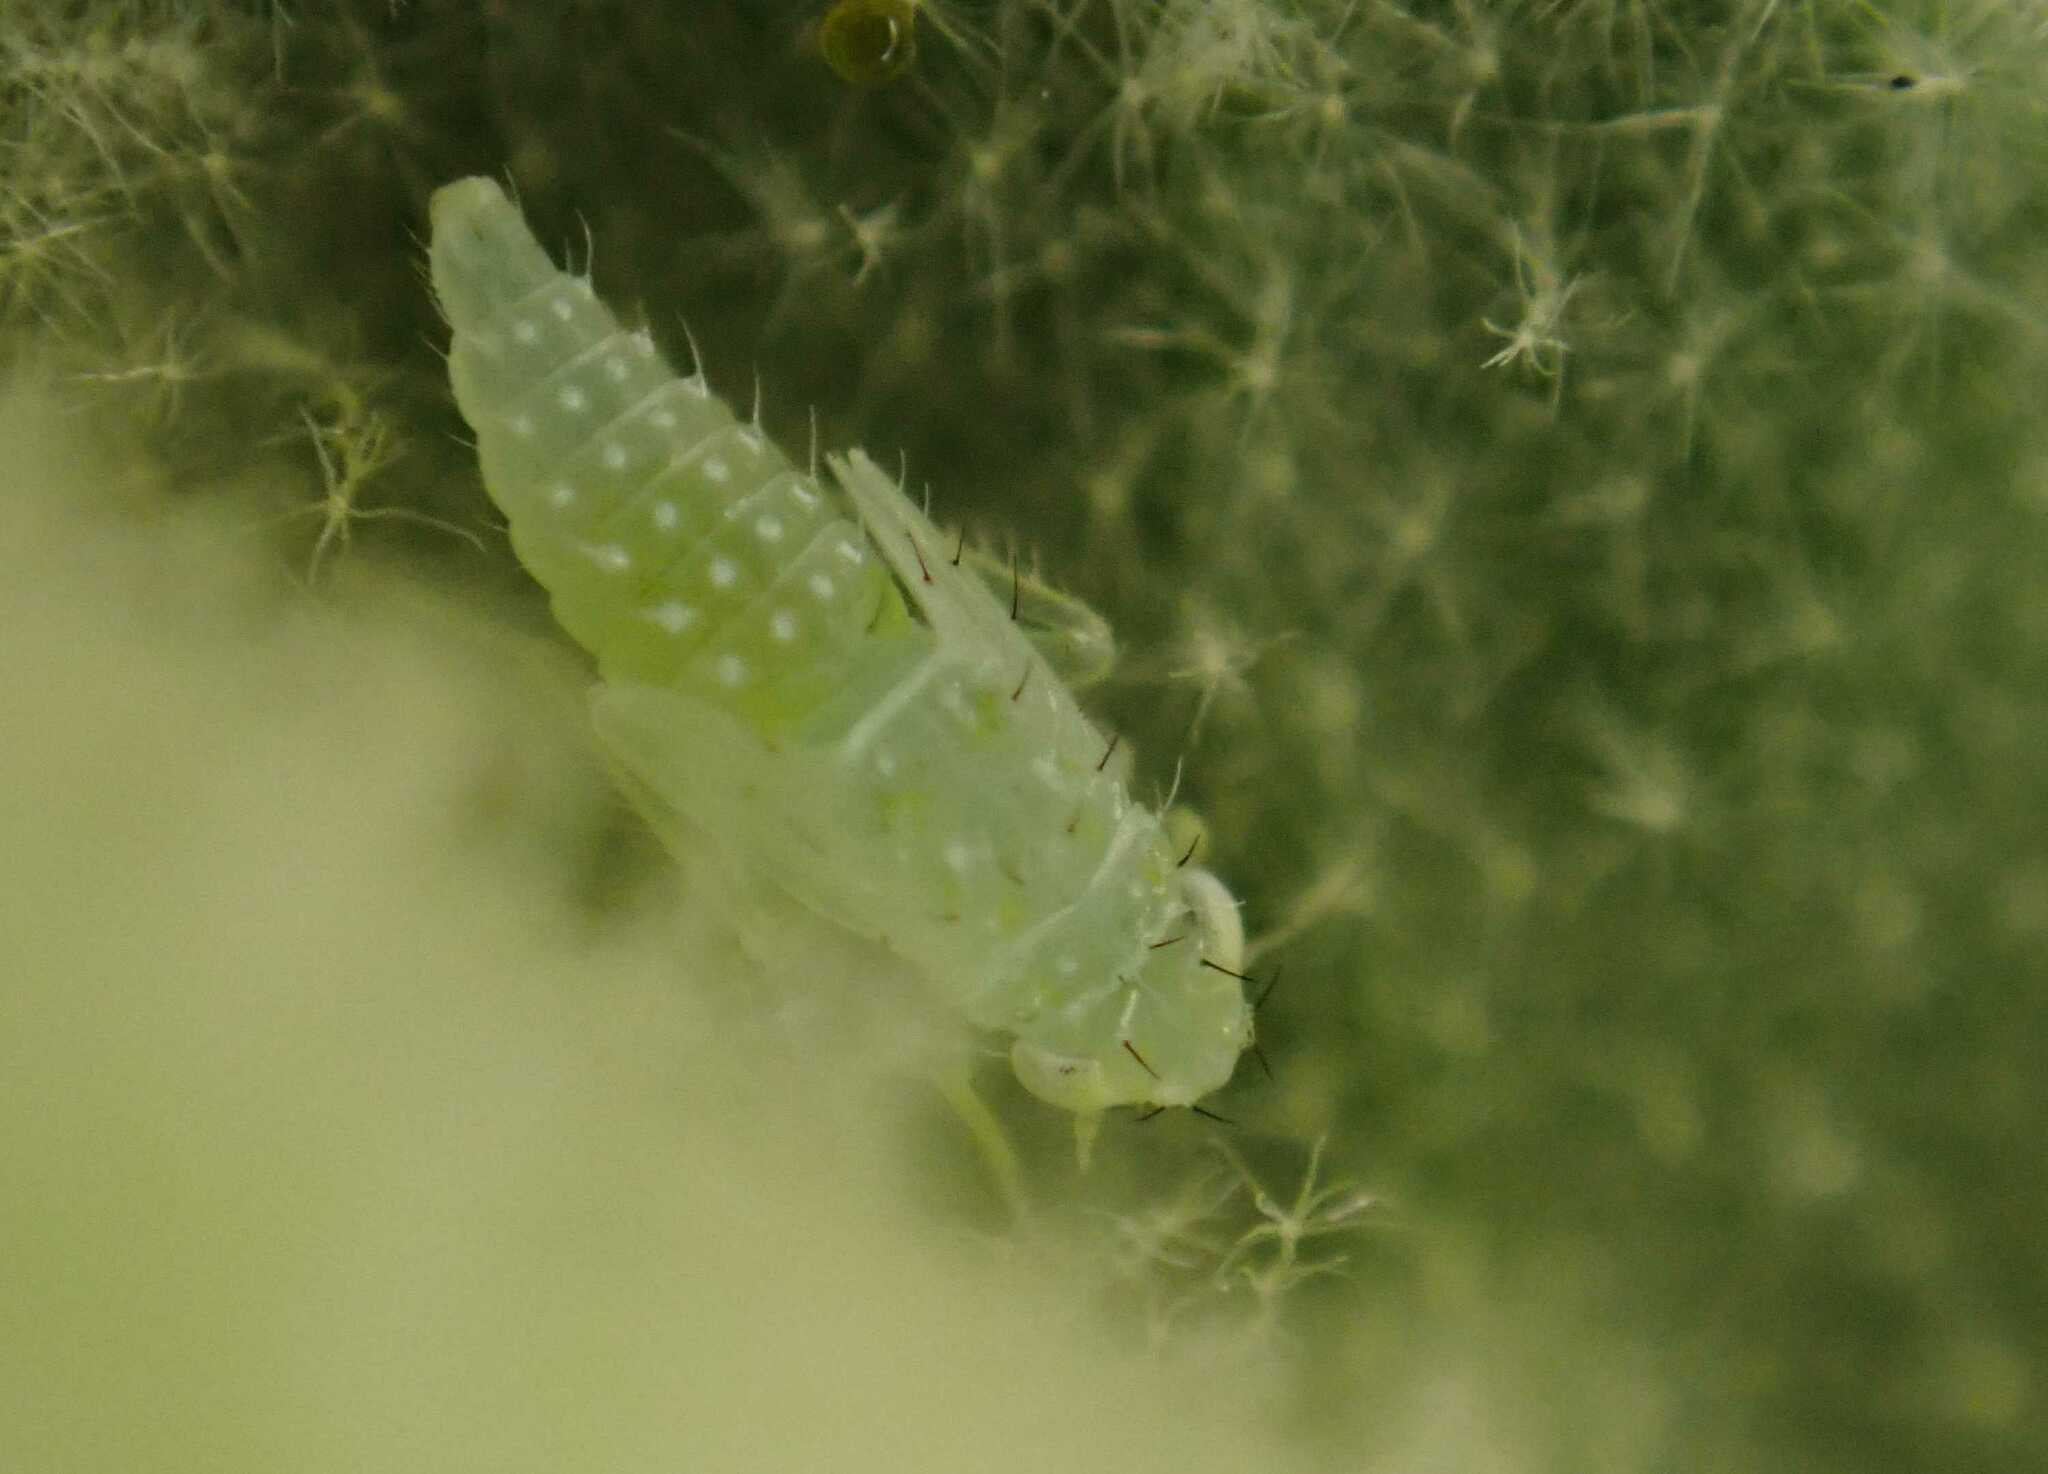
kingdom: Animalia
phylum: Arthropoda
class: Insecta
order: Hemiptera
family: Cicadellidae
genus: Micantulina
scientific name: Micantulina stigmatipennis
